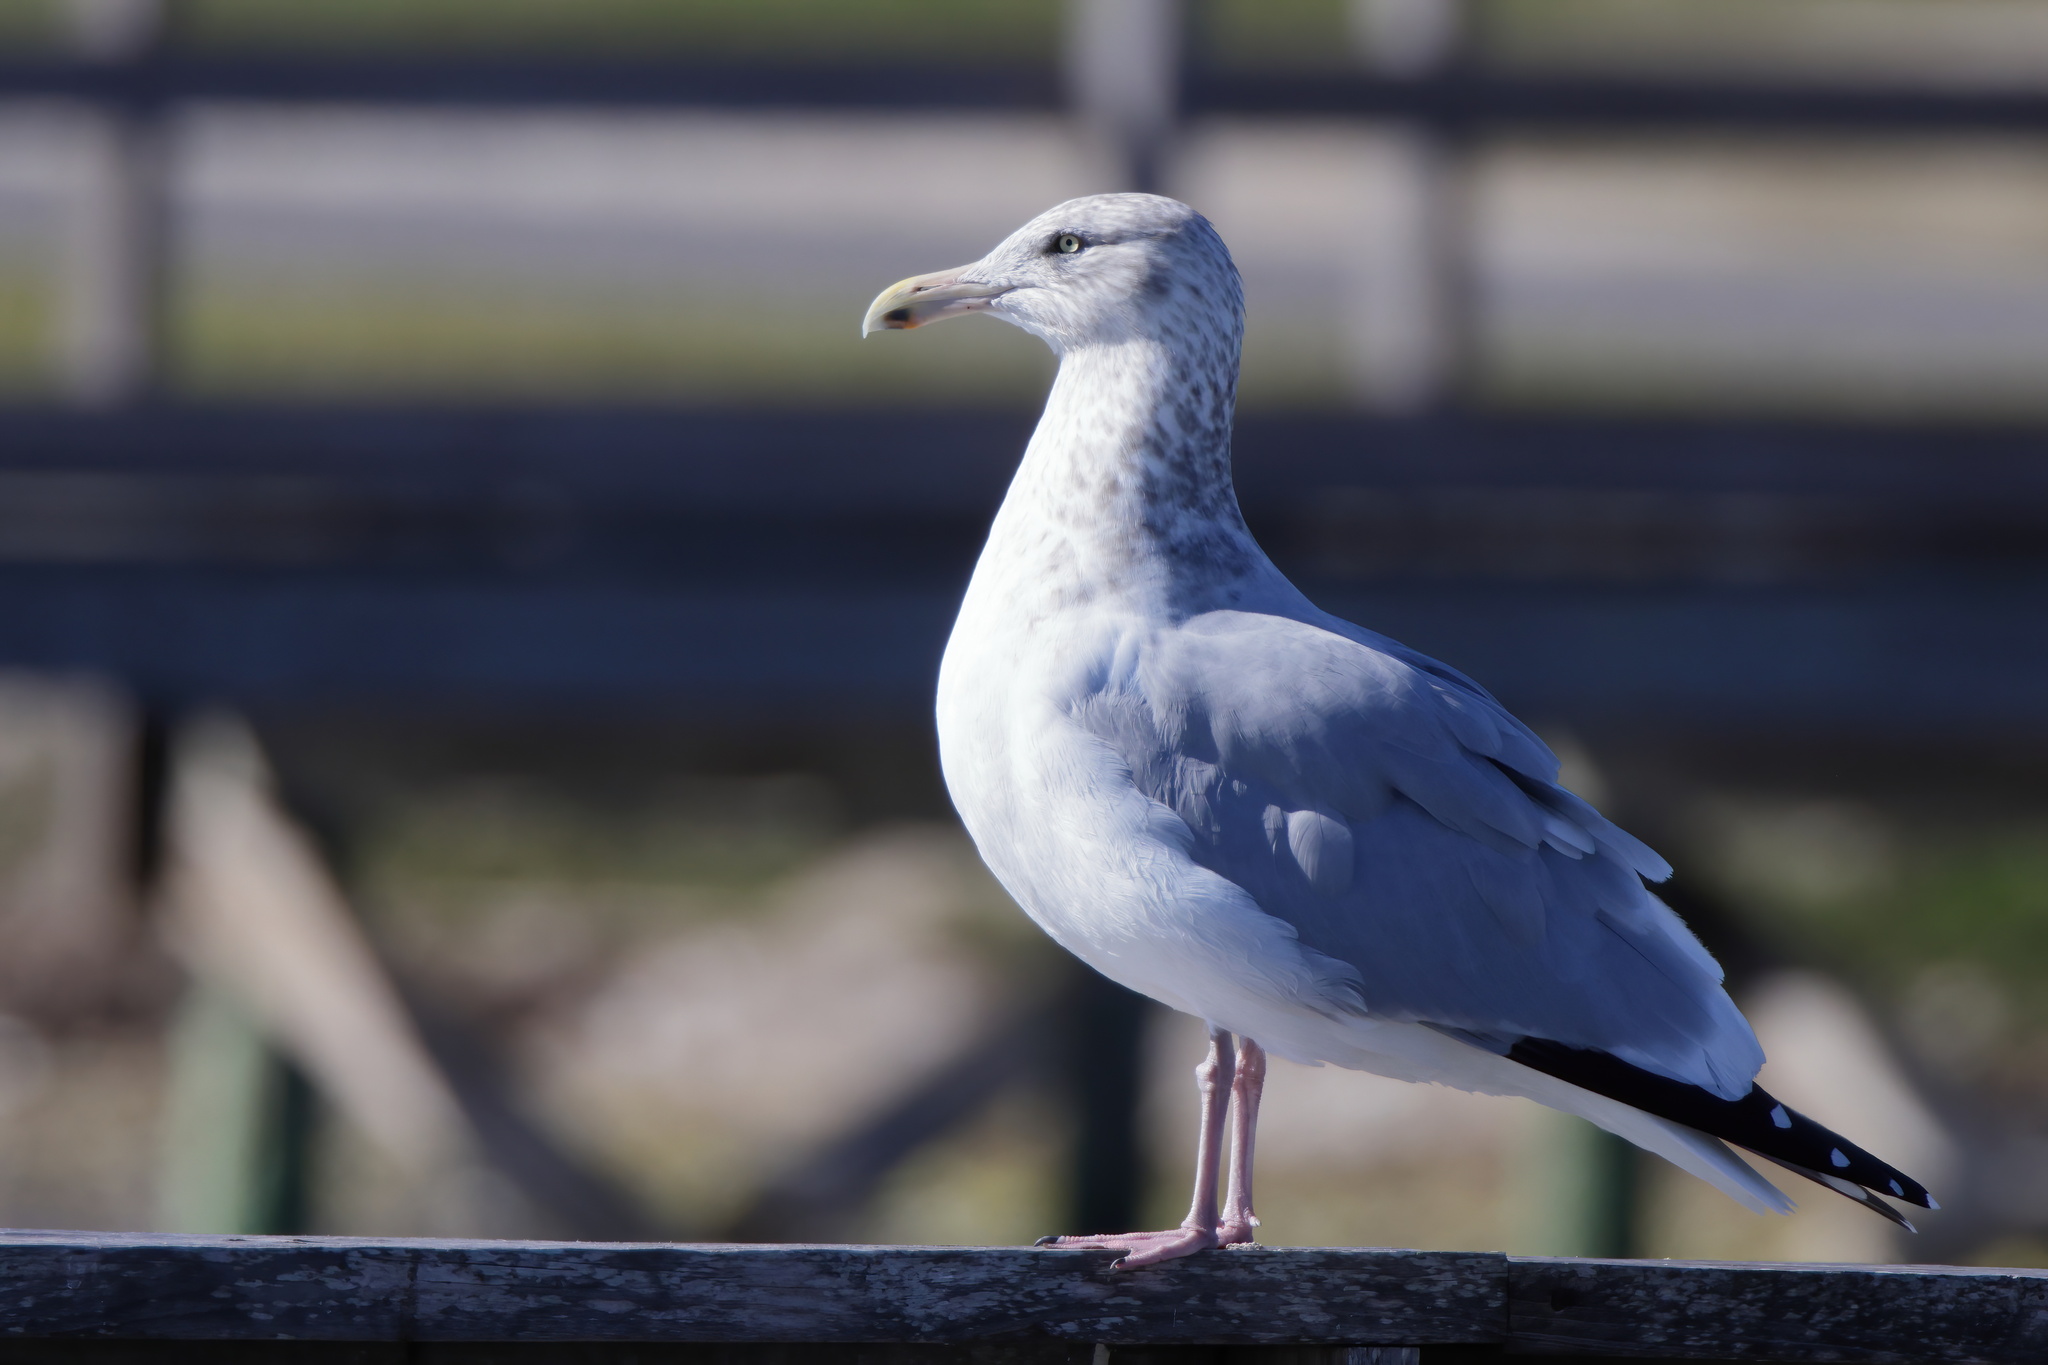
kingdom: Animalia
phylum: Chordata
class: Aves
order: Charadriiformes
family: Laridae
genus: Larus
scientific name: Larus argentatus
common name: Herring gull
